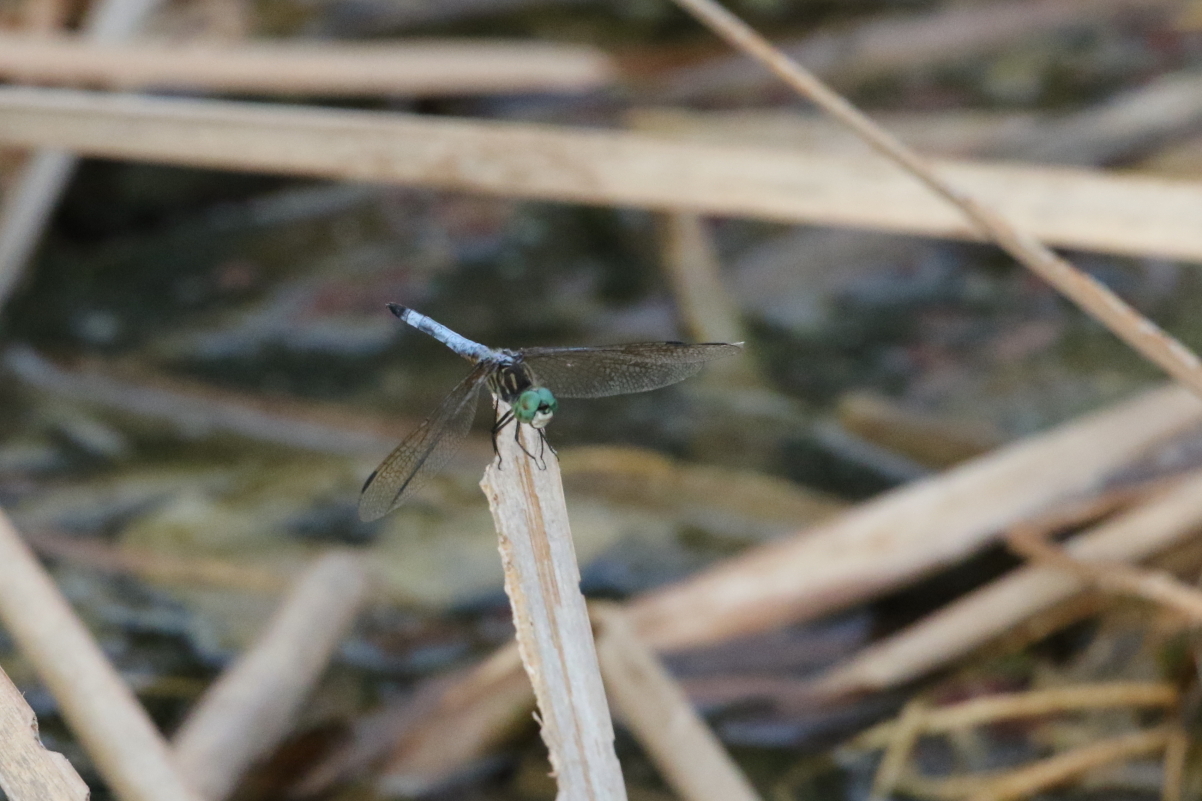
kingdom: Animalia
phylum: Arthropoda
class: Insecta
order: Odonata
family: Libellulidae
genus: Pachydiplax
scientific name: Pachydiplax longipennis
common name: Blue dasher
